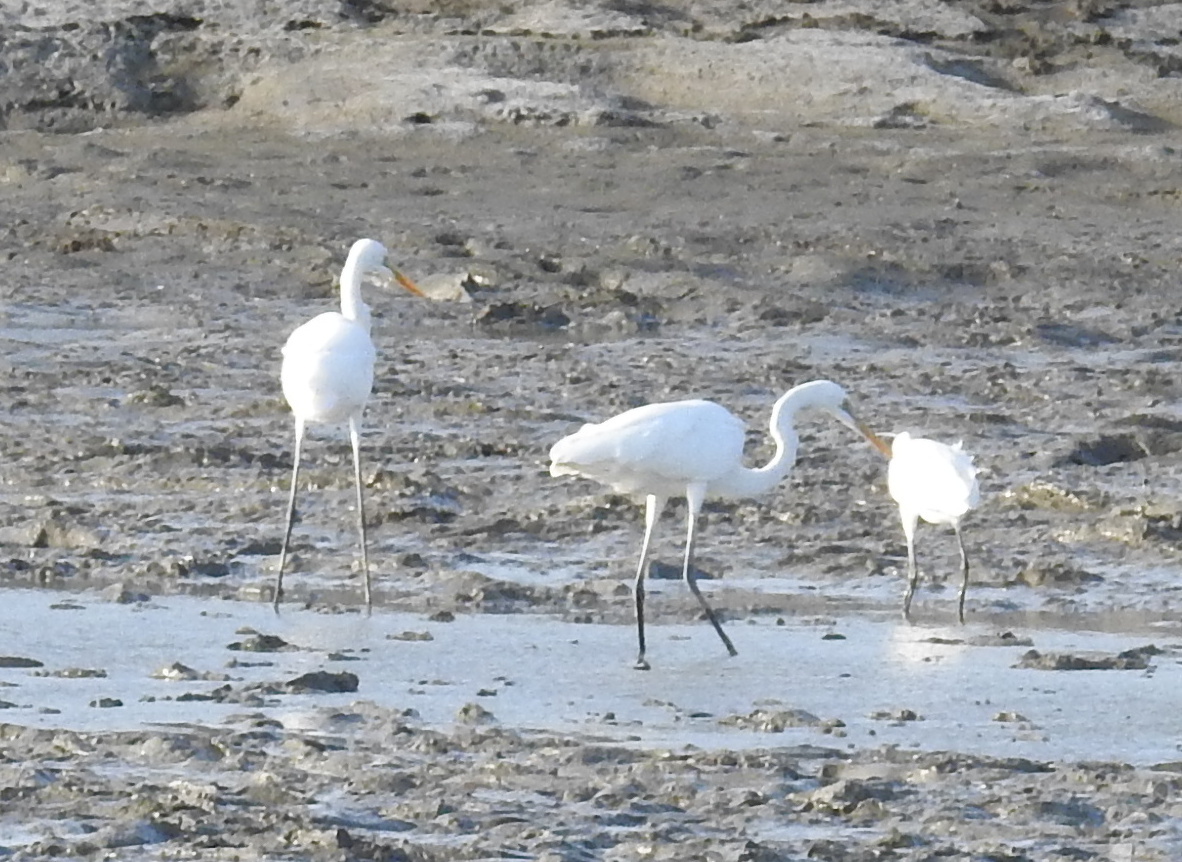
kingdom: Animalia
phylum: Chordata
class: Aves
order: Pelecaniformes
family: Ardeidae
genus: Ardea
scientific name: Ardea alba
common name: Great egret
